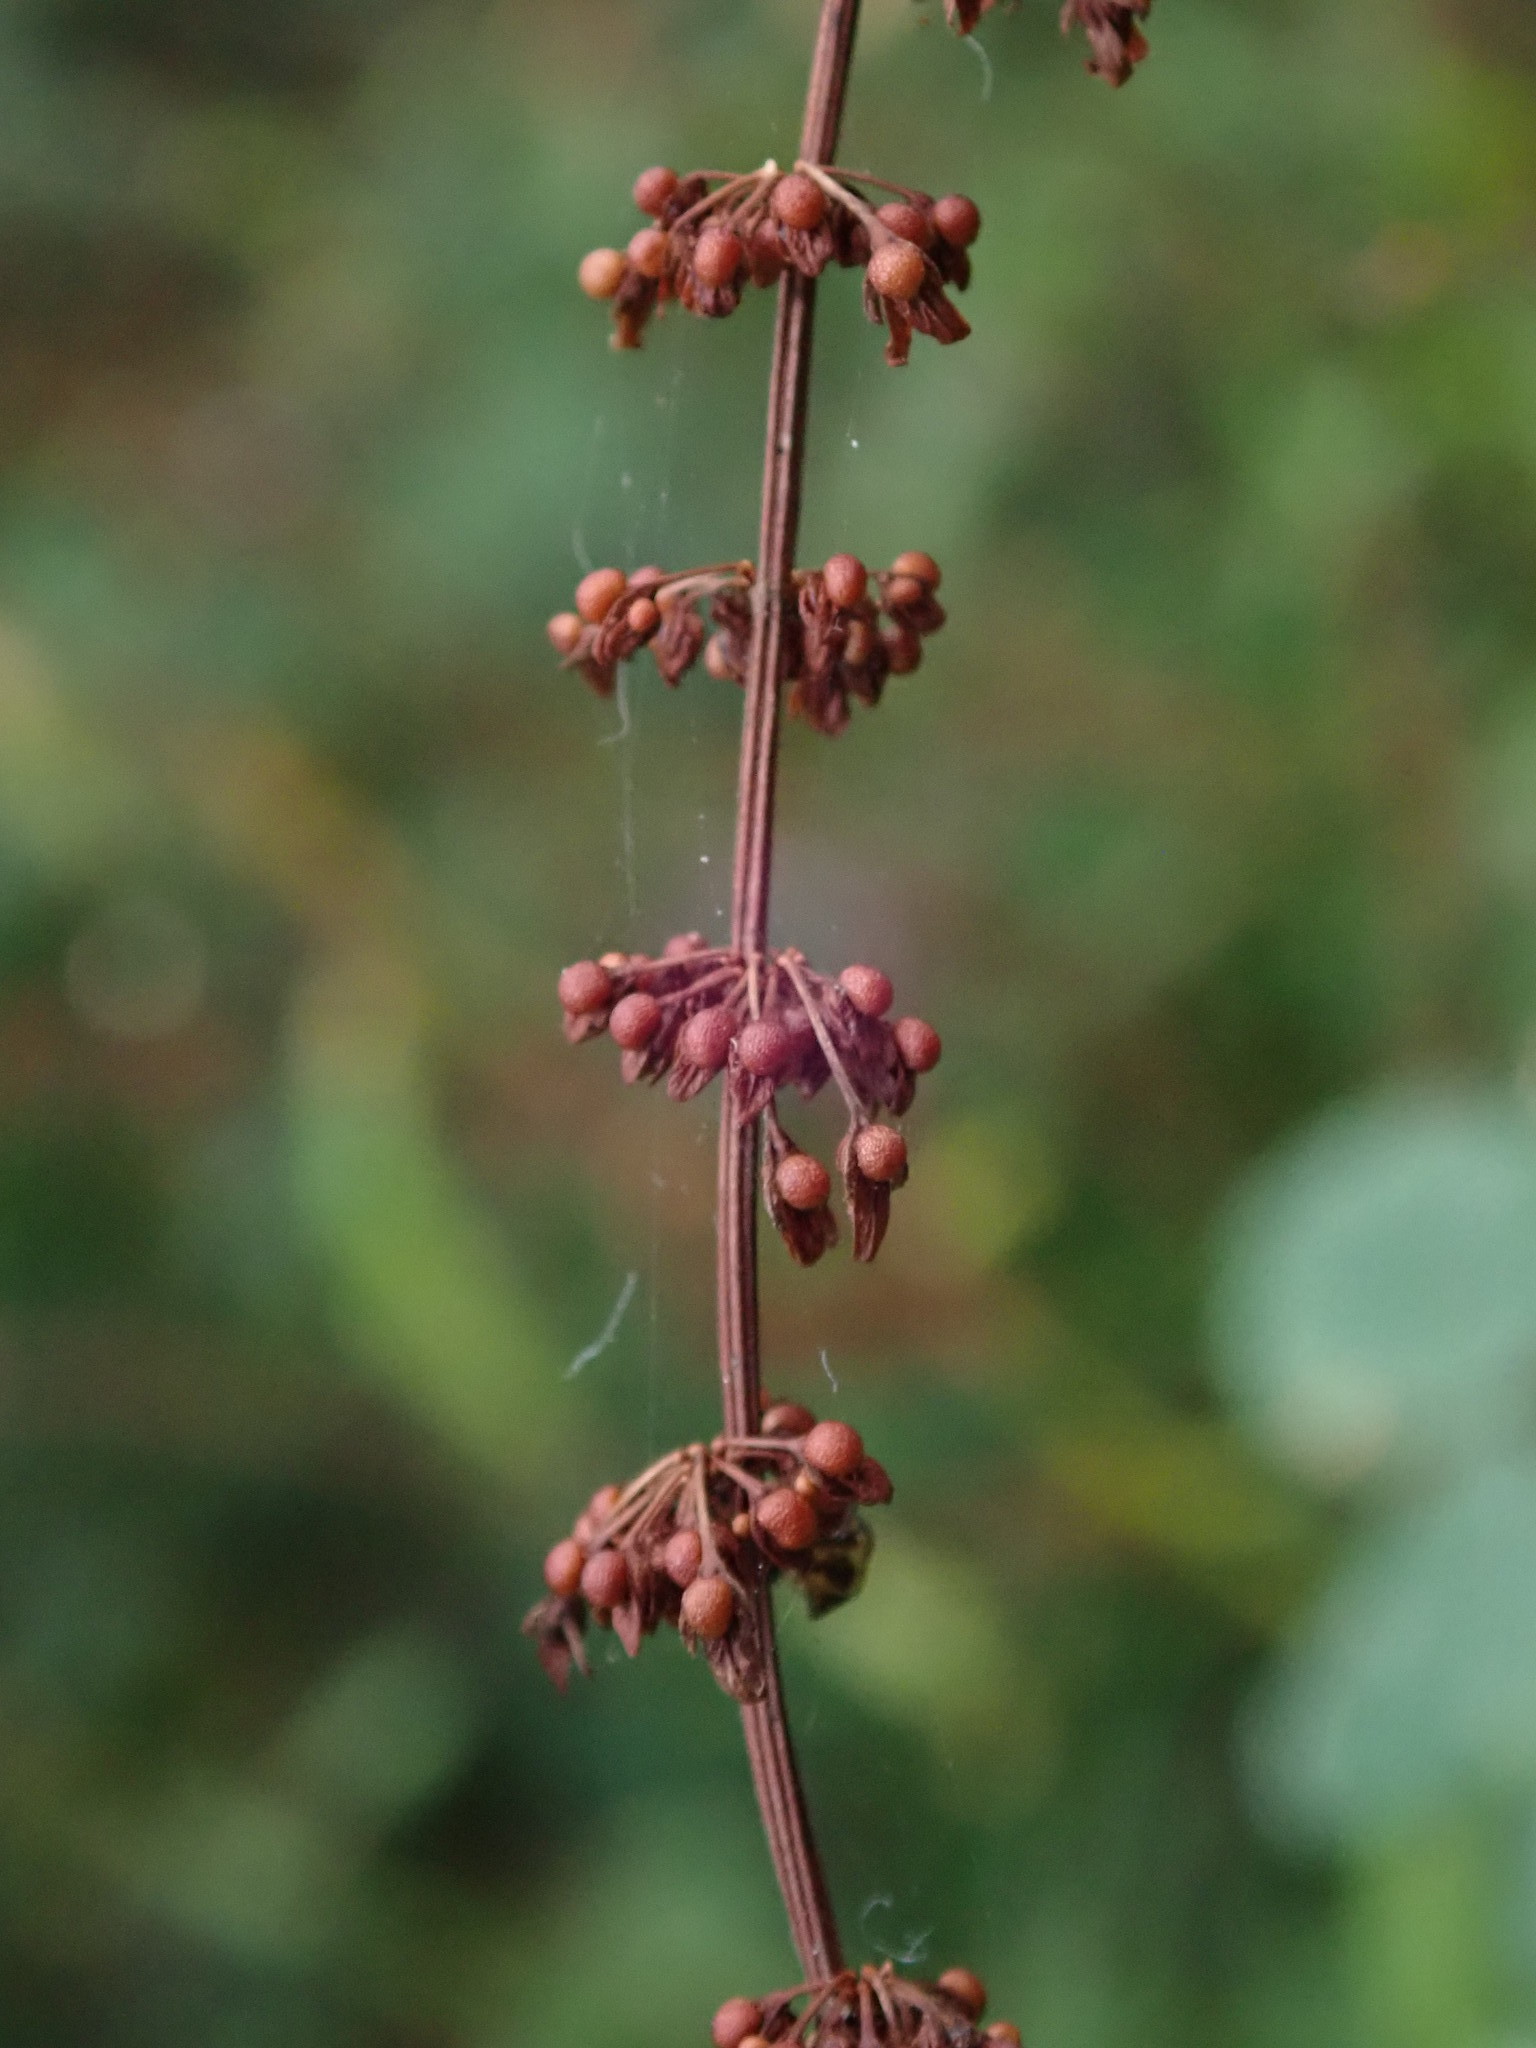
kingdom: Plantae
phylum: Tracheophyta
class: Magnoliopsida
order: Caryophyllales
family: Polygonaceae
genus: Rumex
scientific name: Rumex sanguineus
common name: Wood dock
